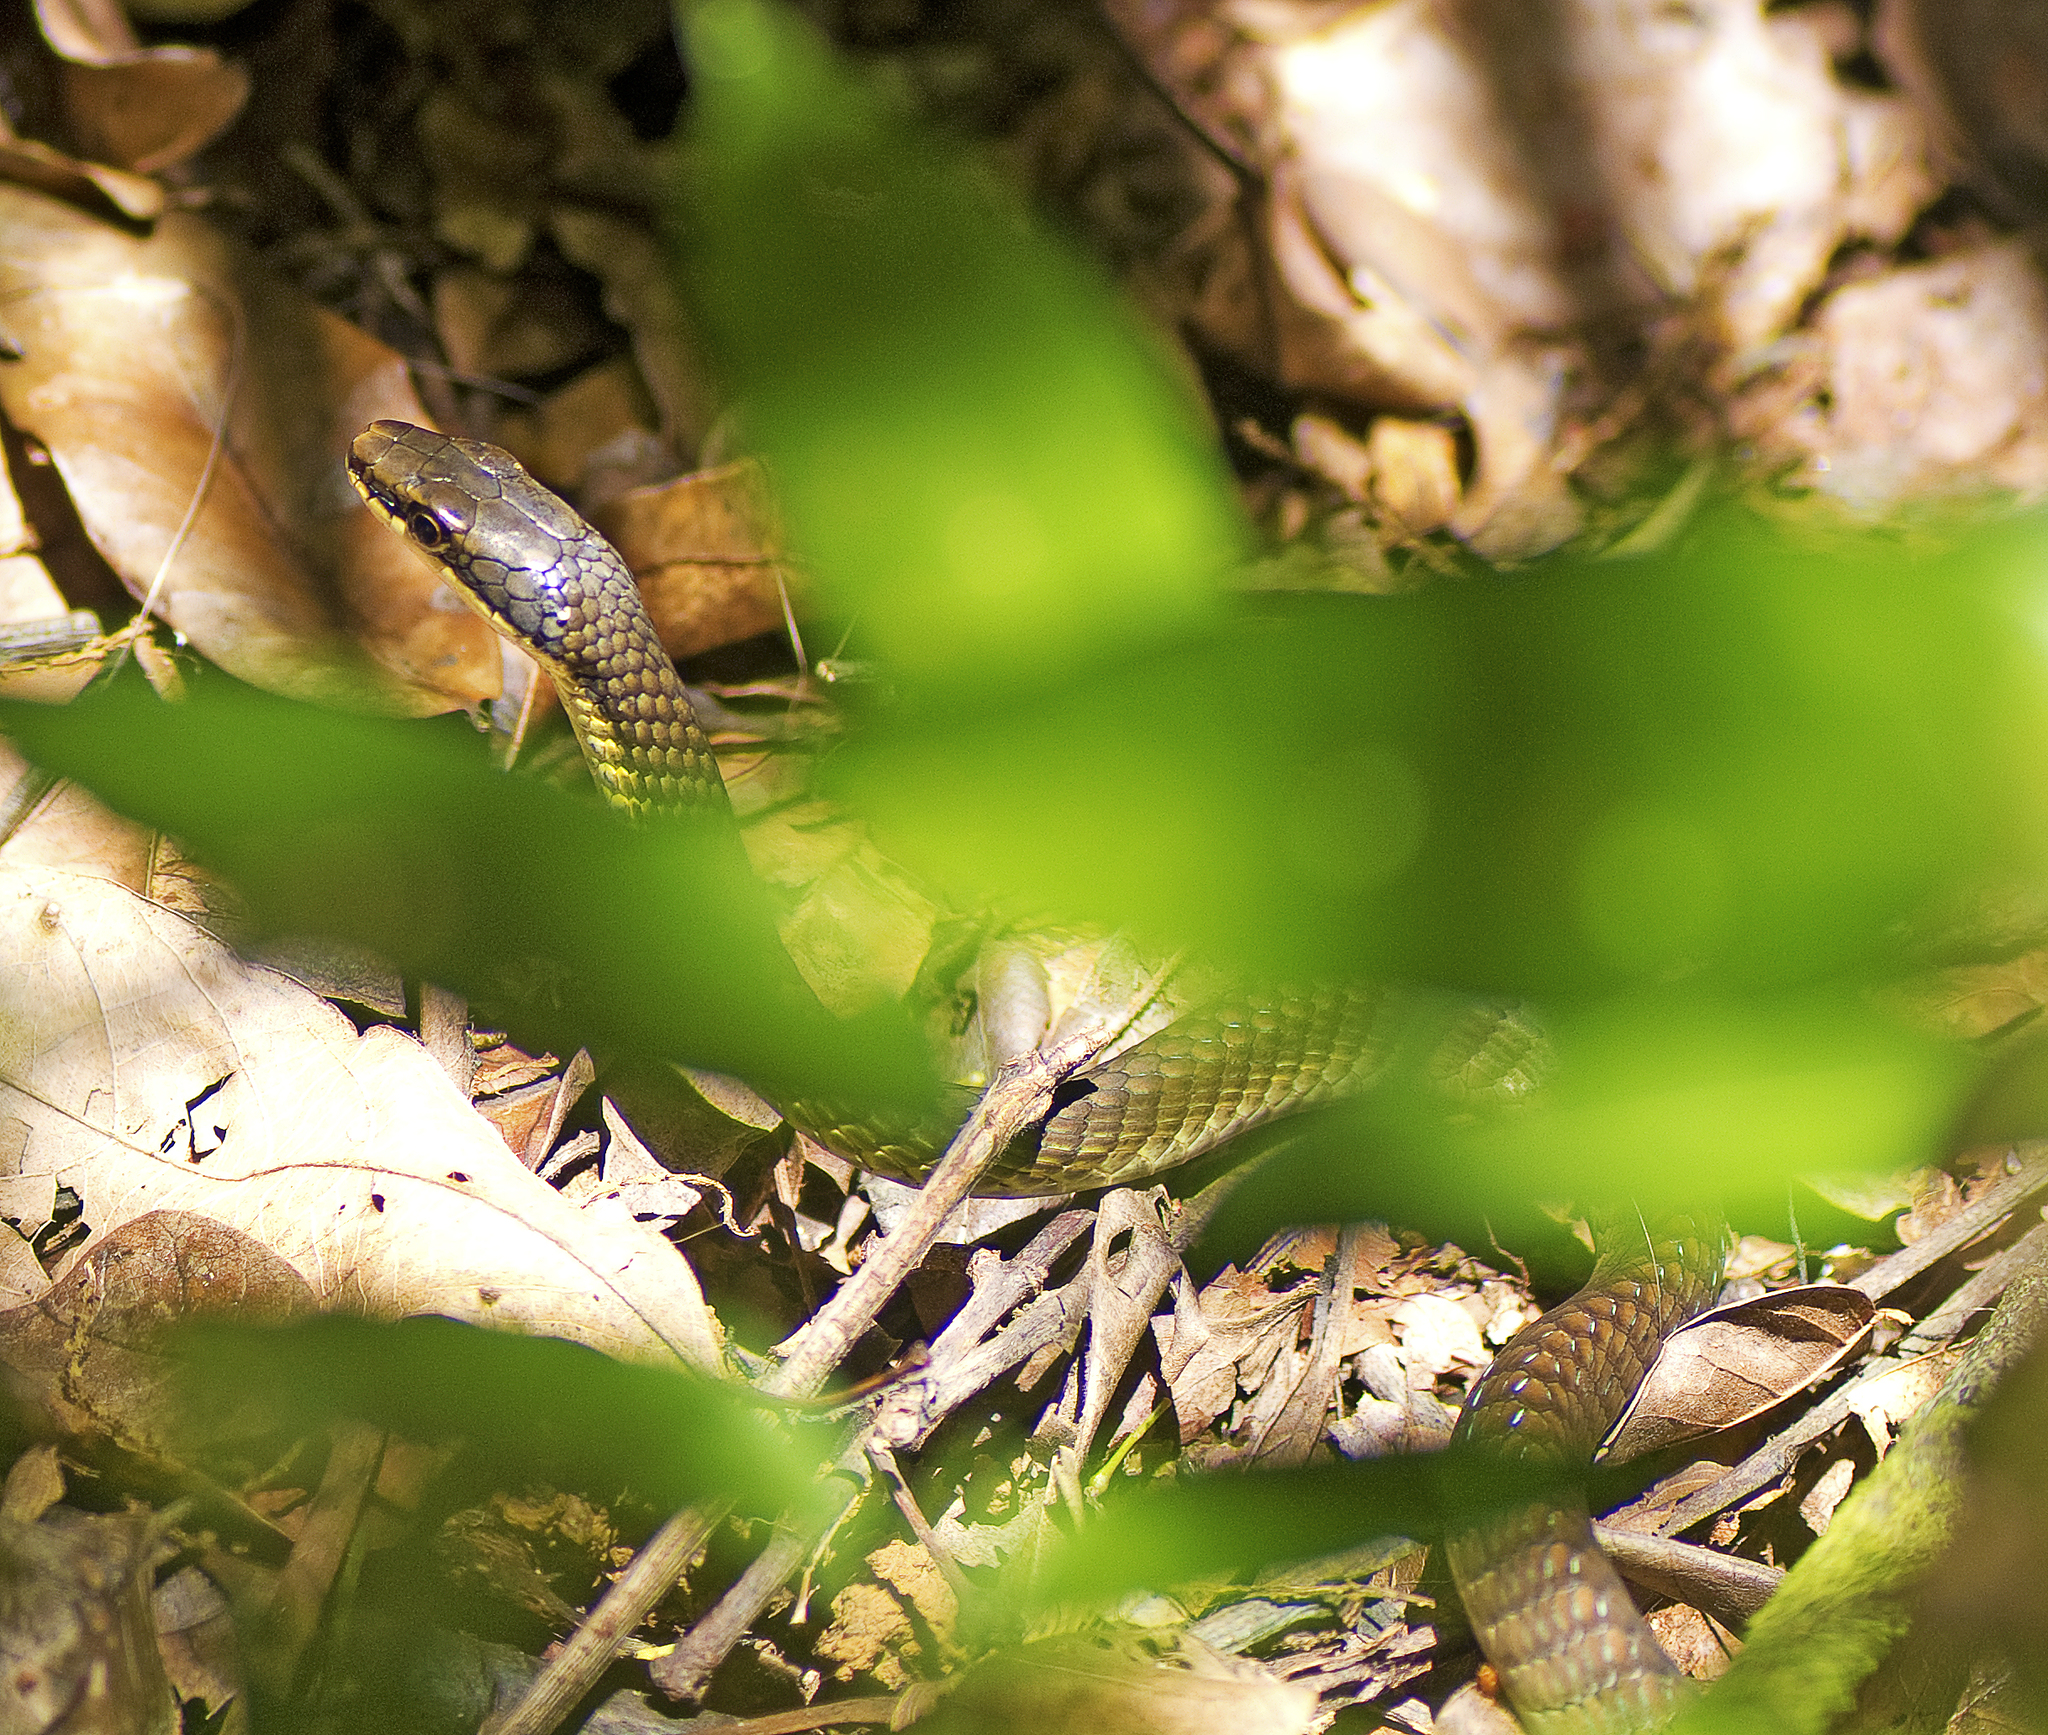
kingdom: Animalia
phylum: Chordata
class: Squamata
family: Colubridae
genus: Dendrelaphis
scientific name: Dendrelaphis calligaster
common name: Green tree snake
